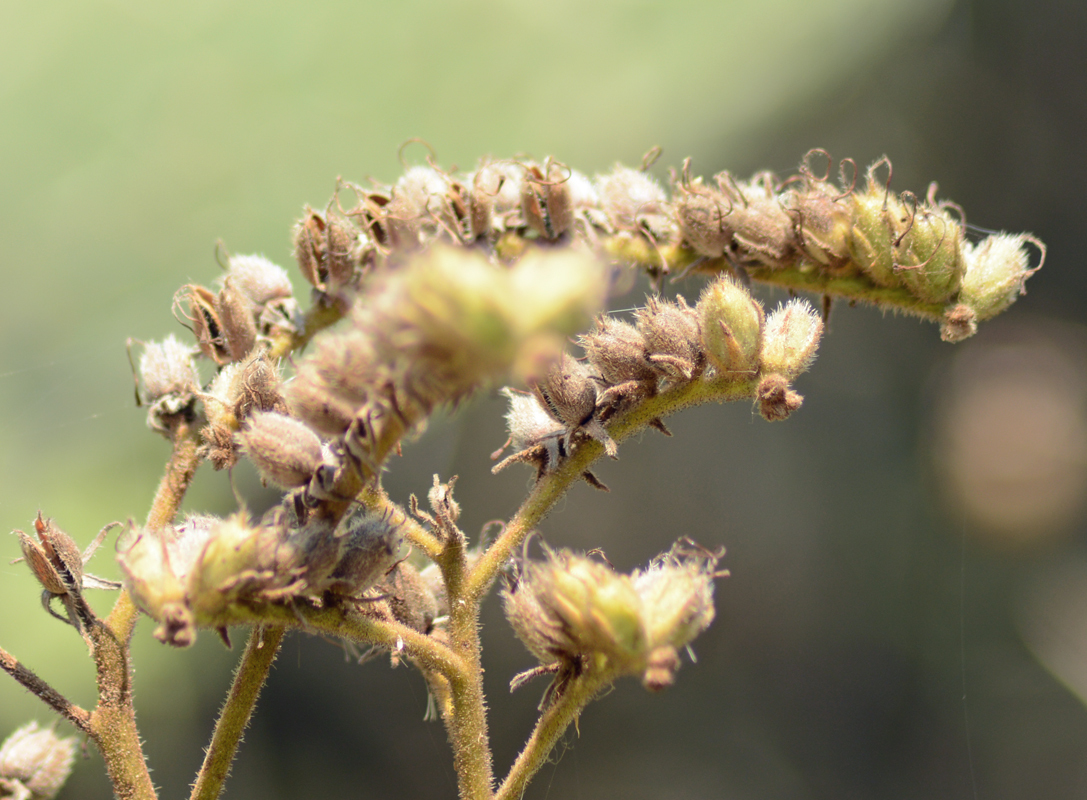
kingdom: Plantae
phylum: Tracheophyta
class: Magnoliopsida
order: Boraginales
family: Namaceae
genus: Wigandia
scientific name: Wigandia urens
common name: Caracus wigandia
